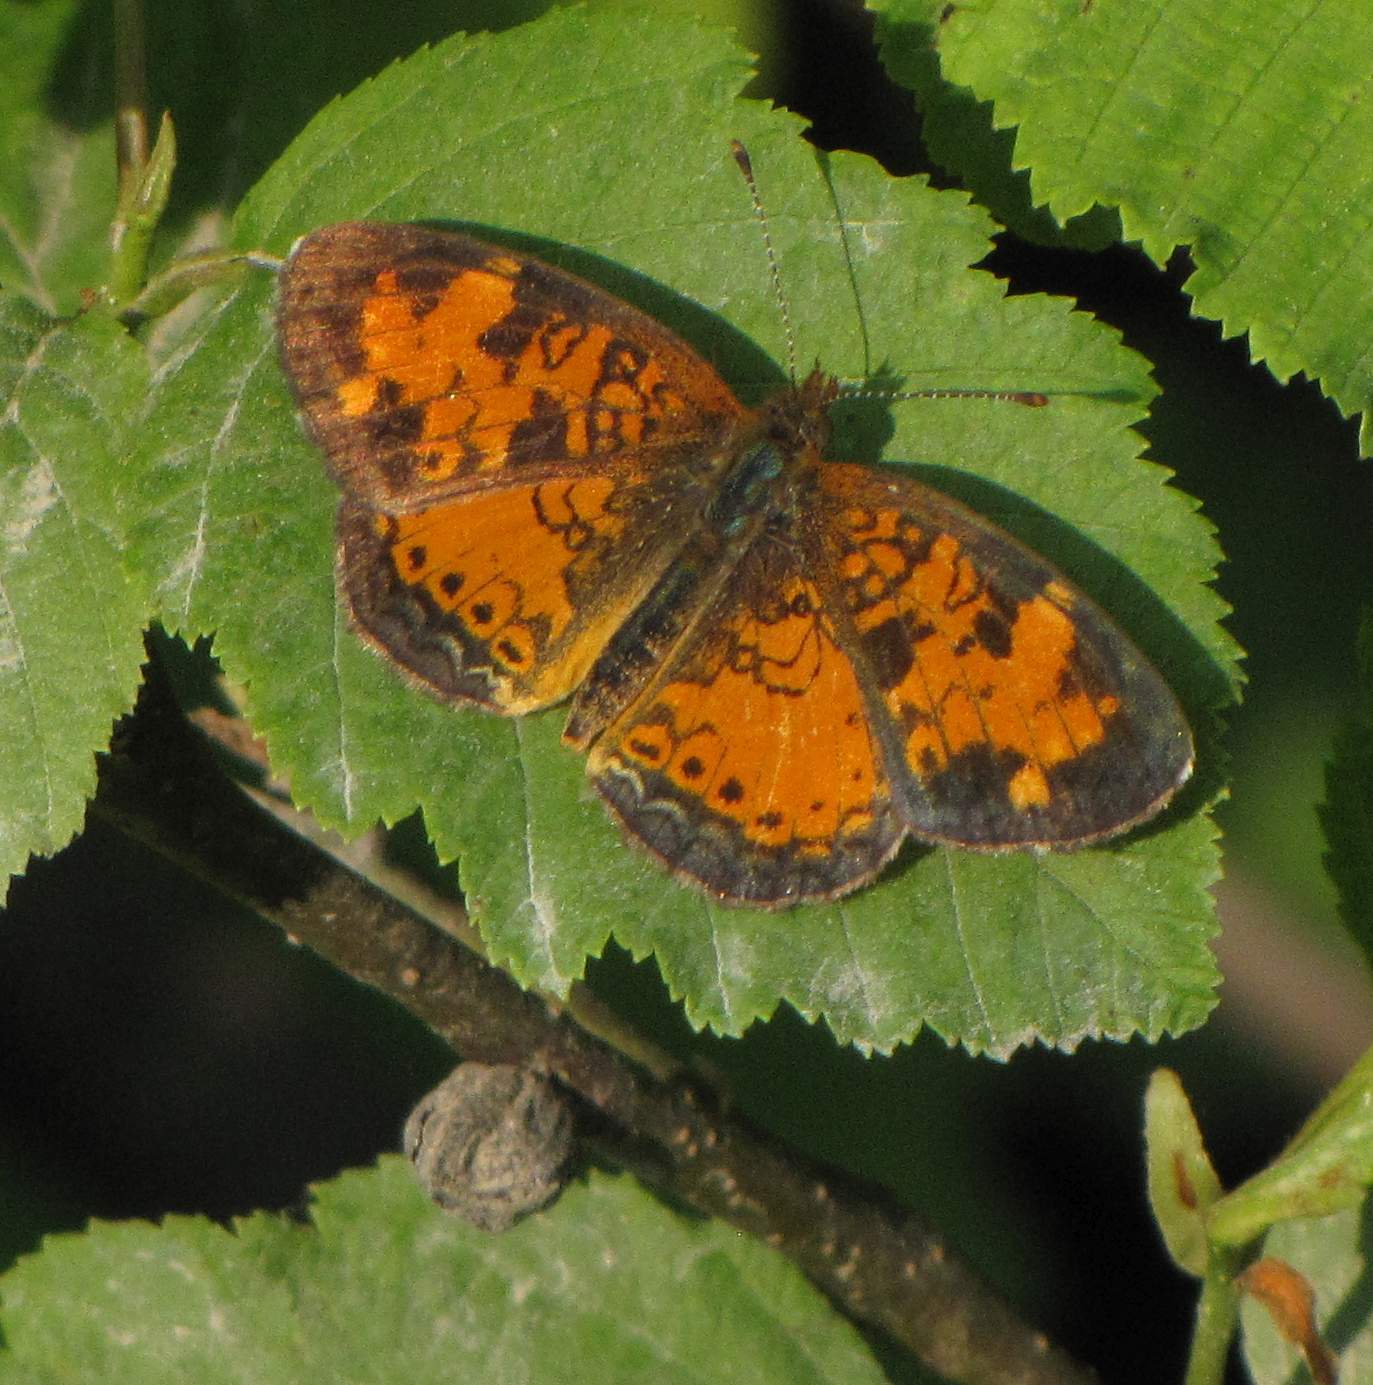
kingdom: Animalia
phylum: Arthropoda
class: Insecta
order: Lepidoptera
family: Nymphalidae
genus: Phyciodes
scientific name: Phyciodes tharos
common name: Pearl crescent
